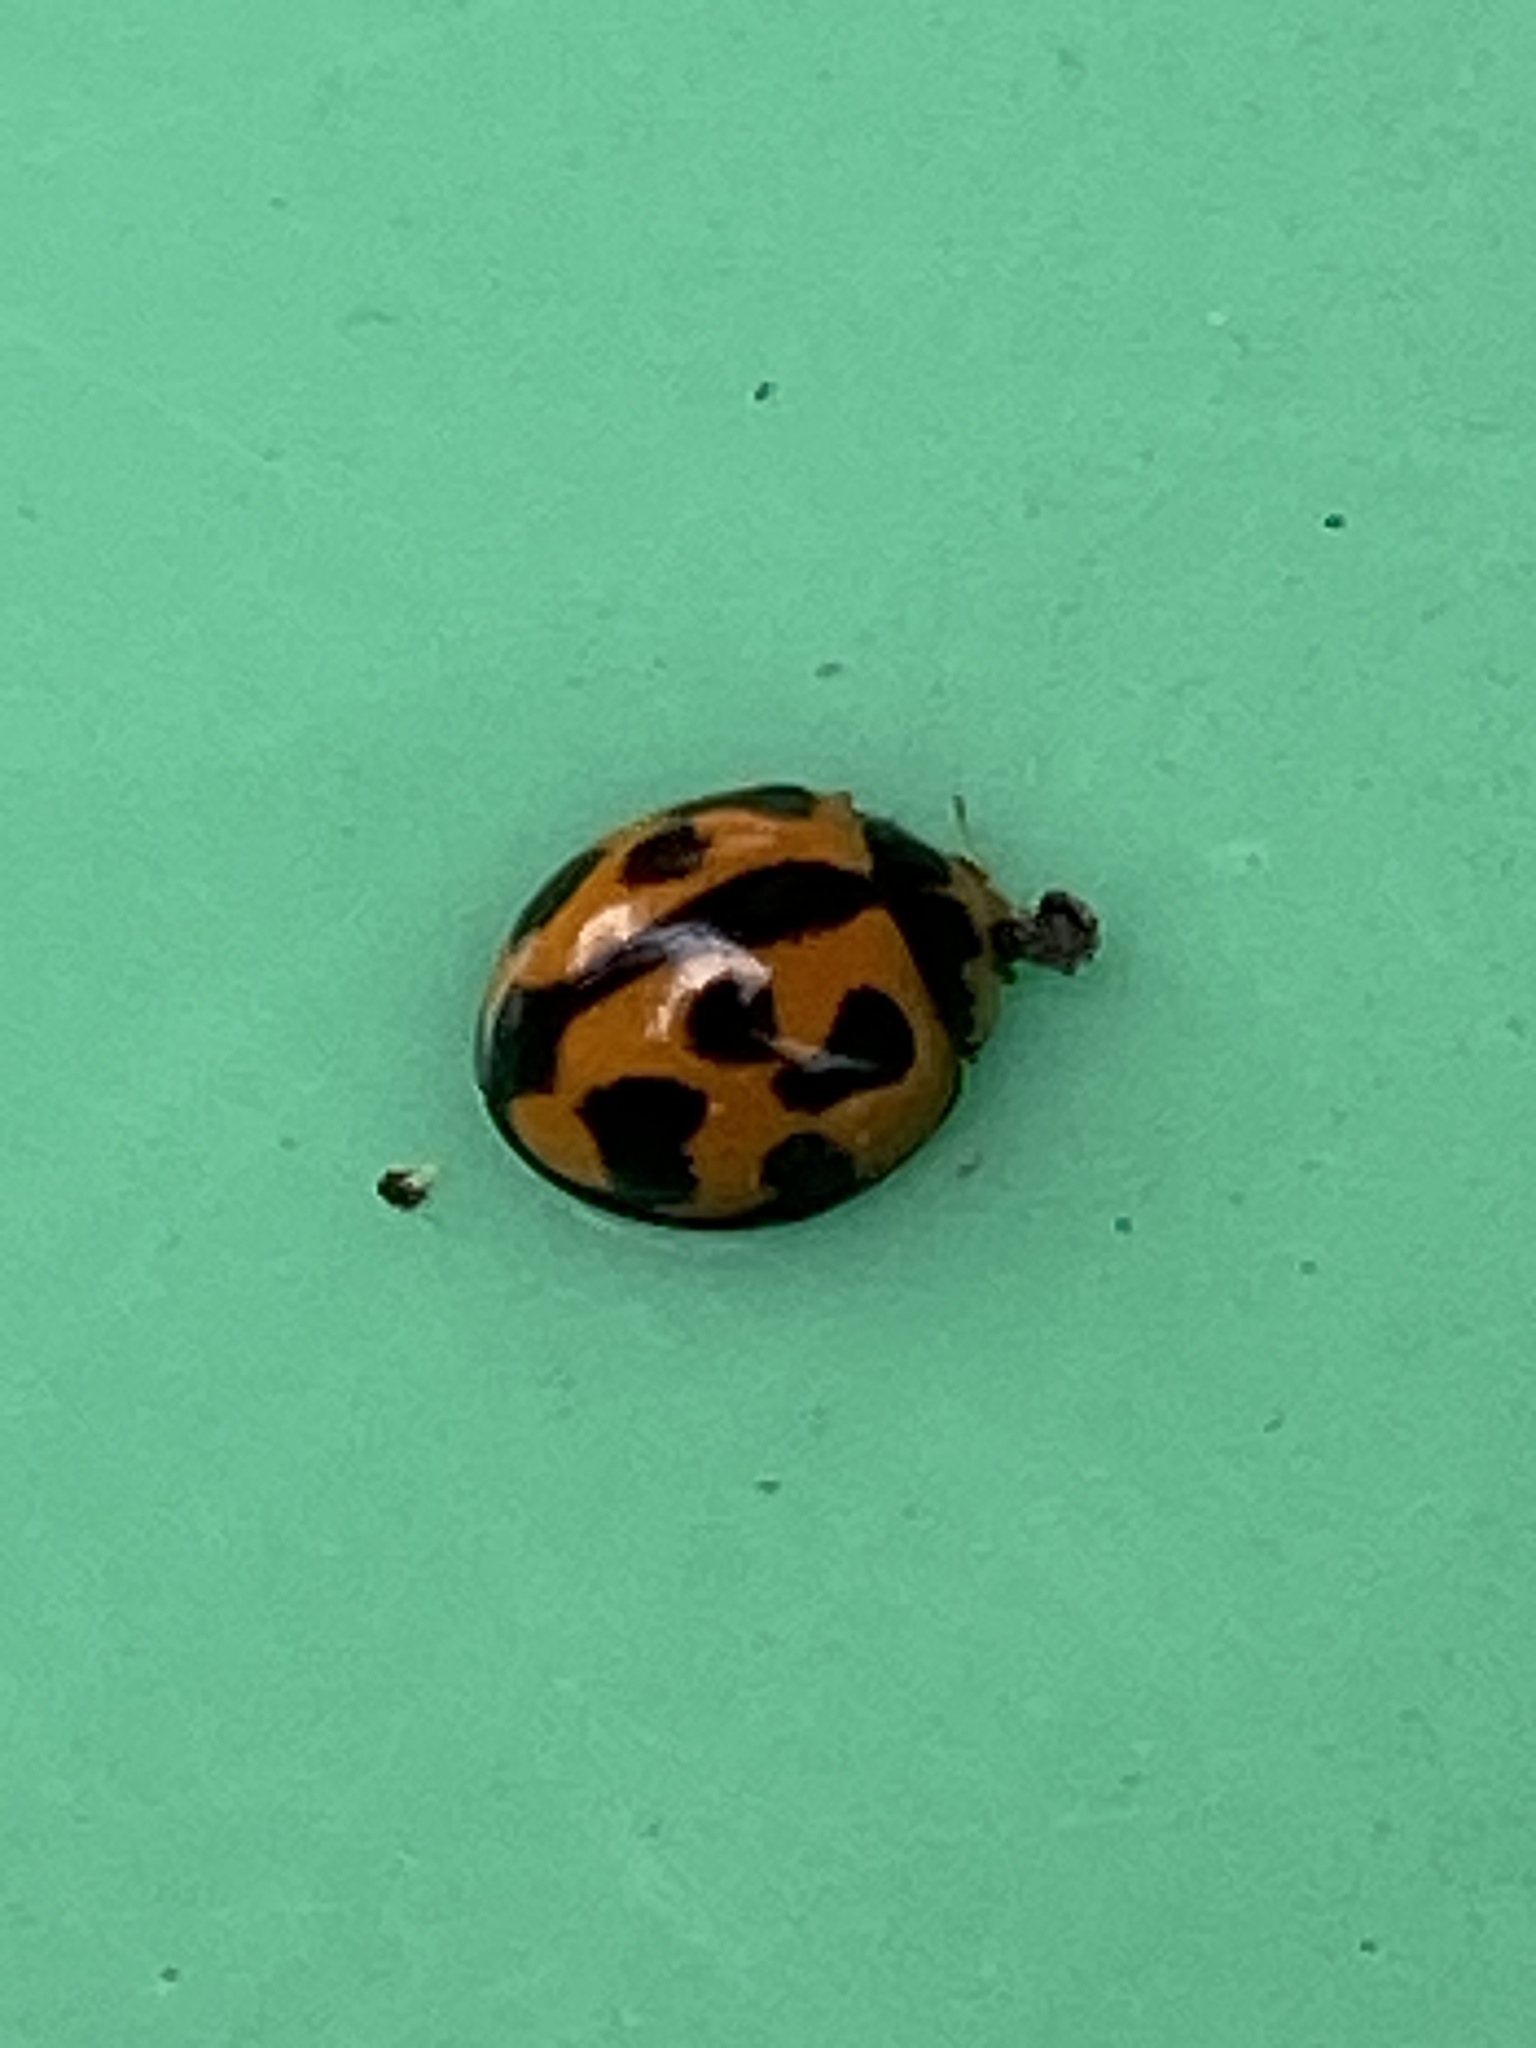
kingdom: Animalia
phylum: Arthropoda
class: Insecta
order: Coleoptera
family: Coccinellidae
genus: Coelophora
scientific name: Coelophora inaequalis
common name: Common australian lady beetle
